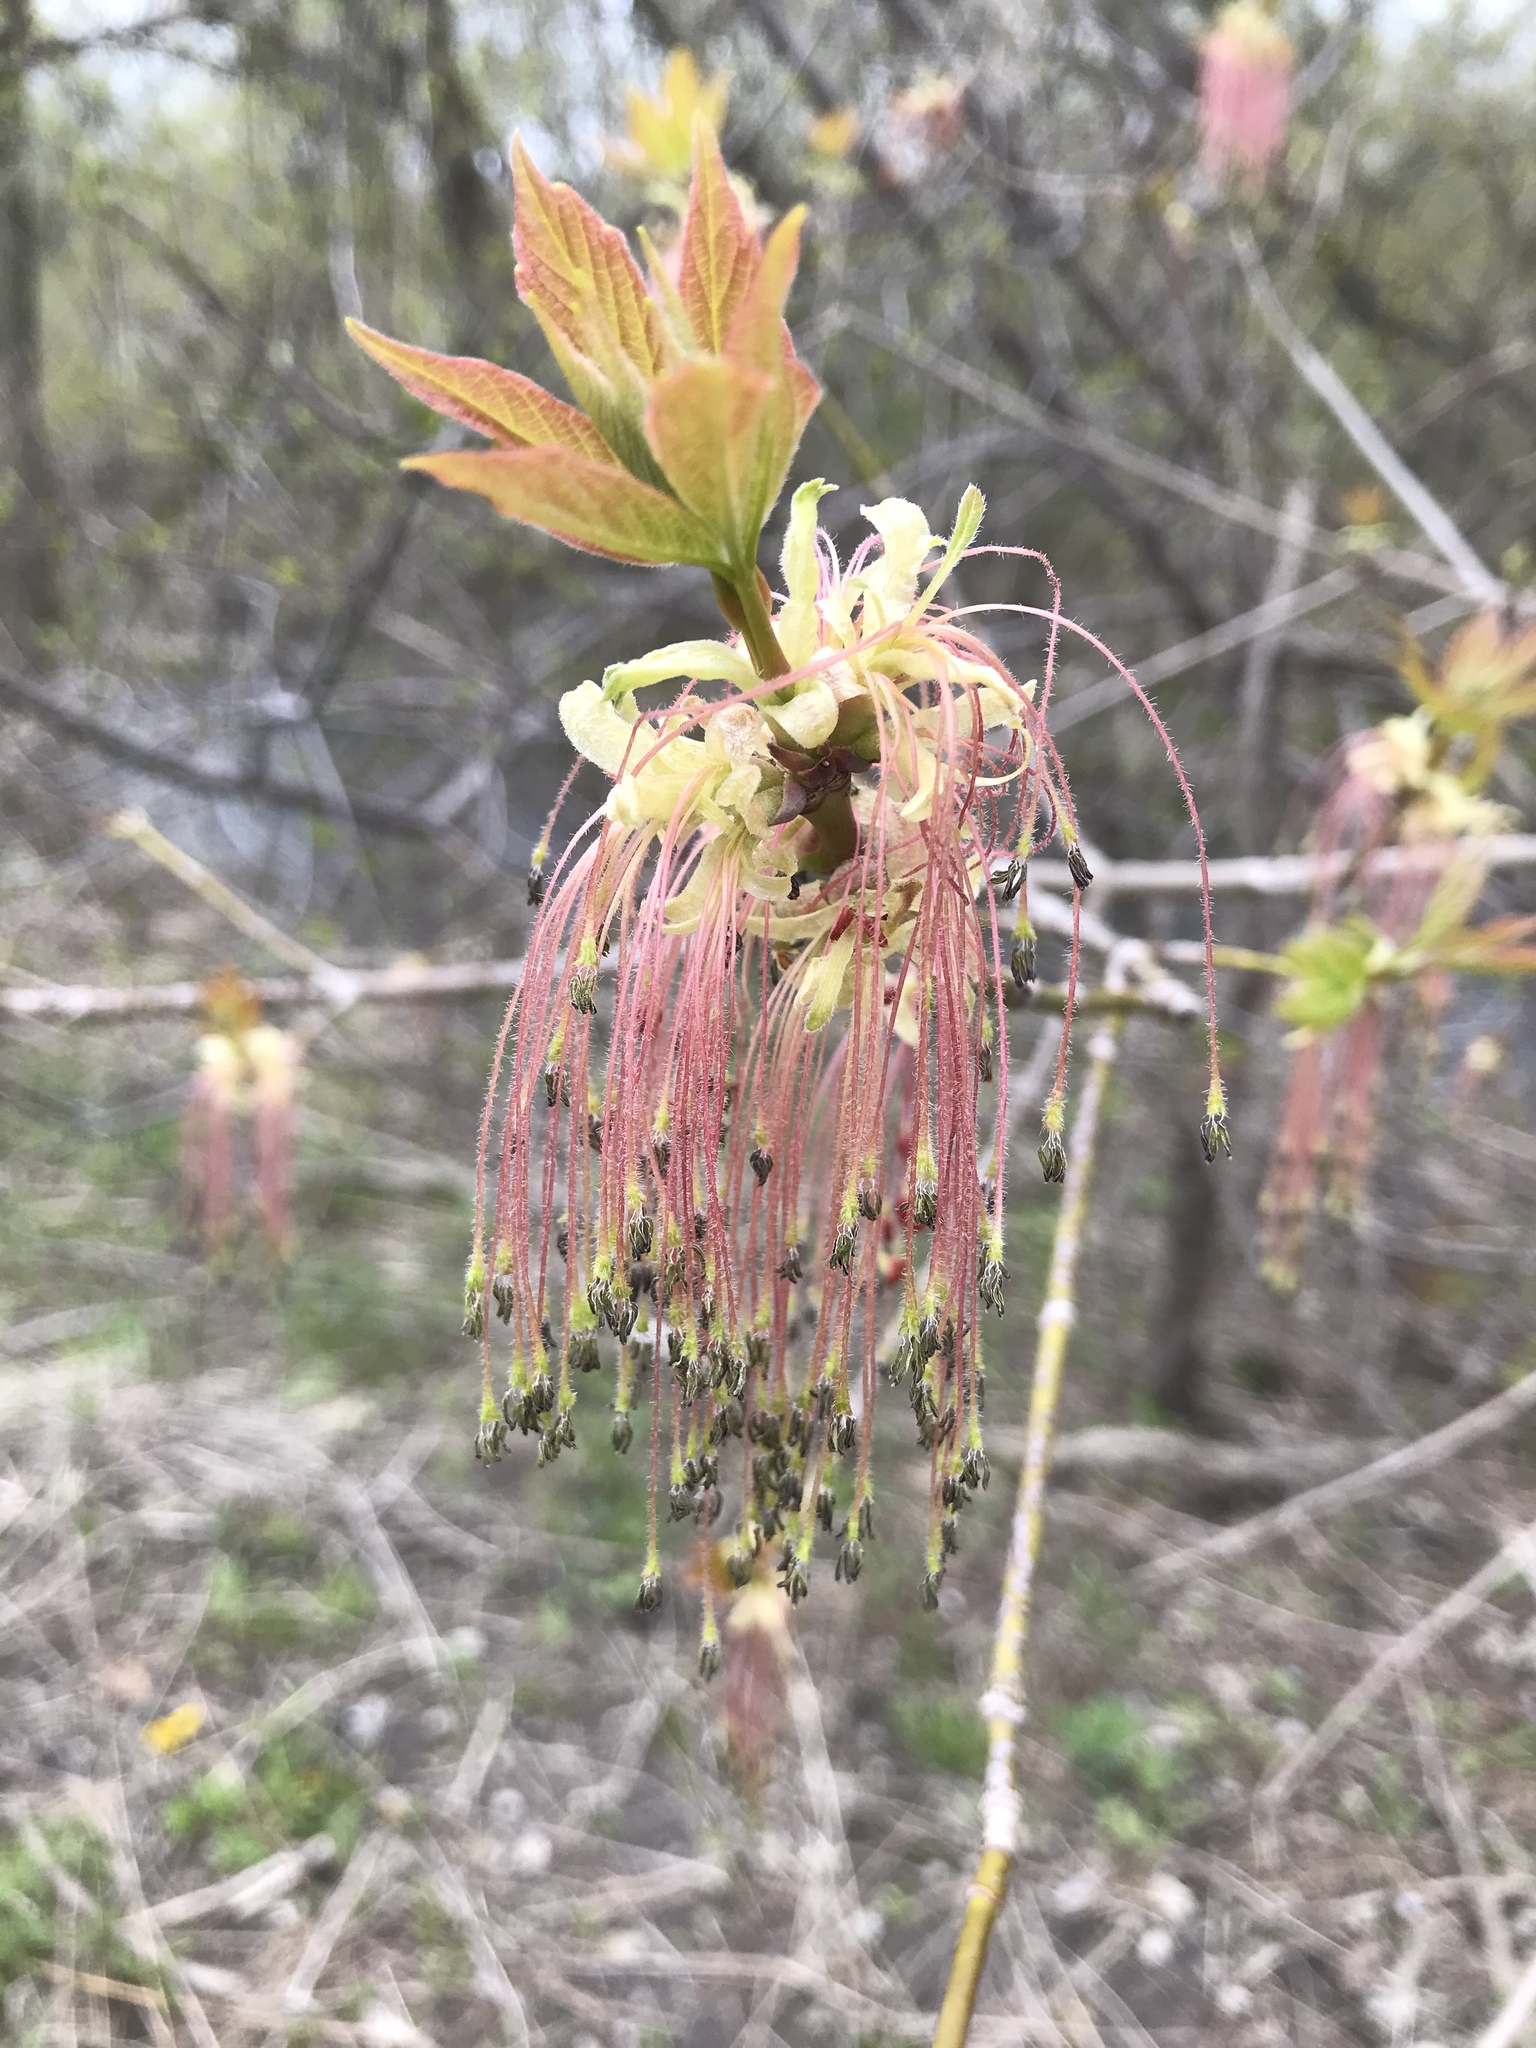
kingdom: Plantae
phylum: Tracheophyta
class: Magnoliopsida
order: Sapindales
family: Sapindaceae
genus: Acer
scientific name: Acer negundo
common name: Ashleaf maple
